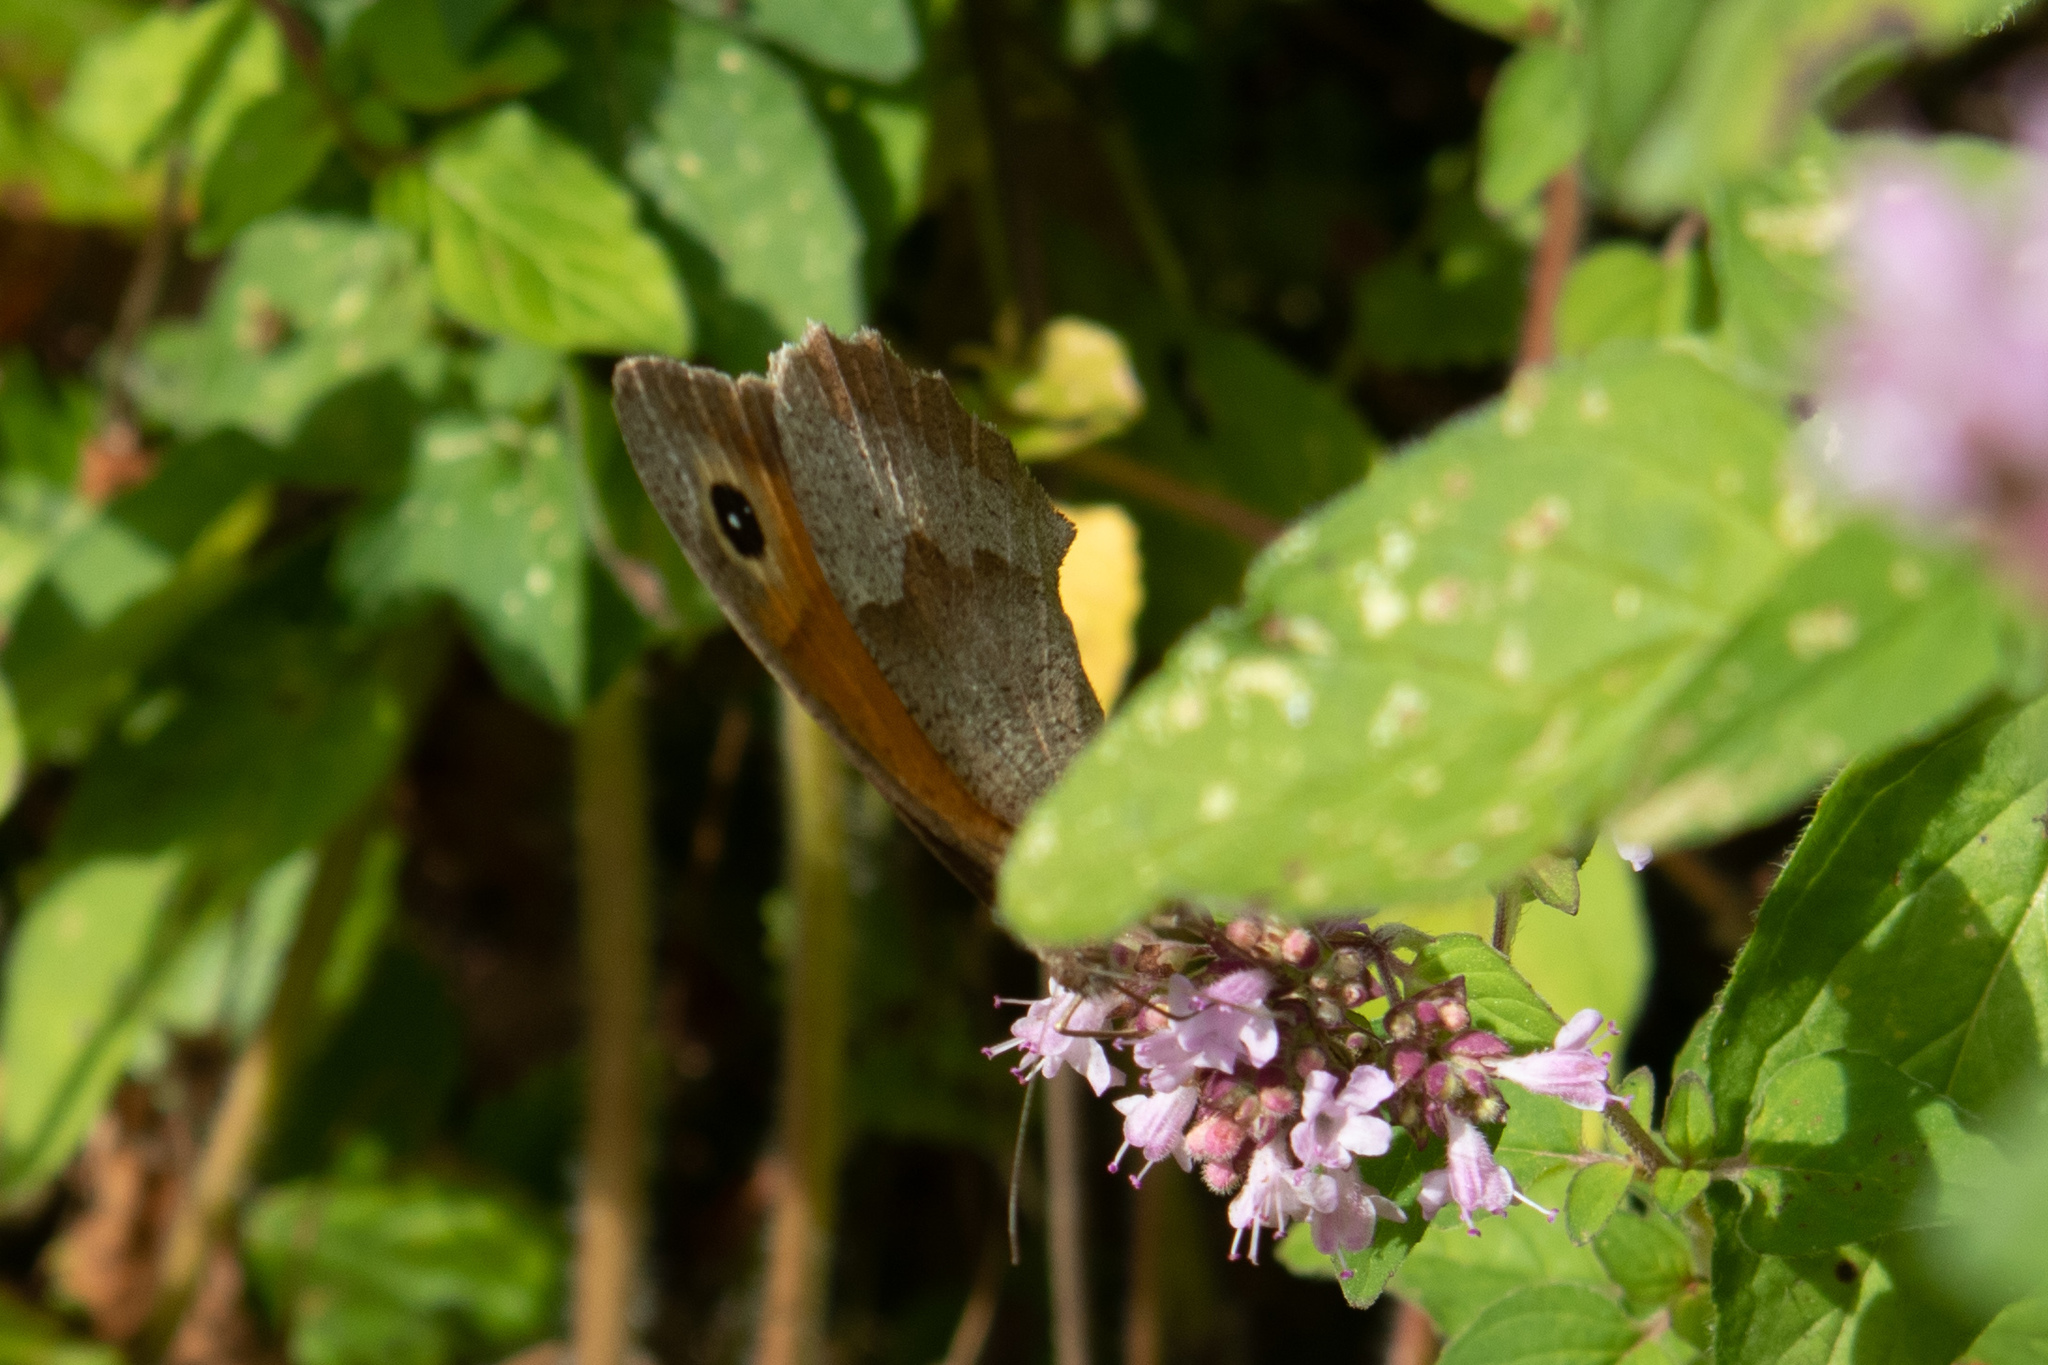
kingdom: Animalia
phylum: Arthropoda
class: Insecta
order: Lepidoptera
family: Nymphalidae
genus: Maniola
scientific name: Maniola jurtina
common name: Meadow brown
